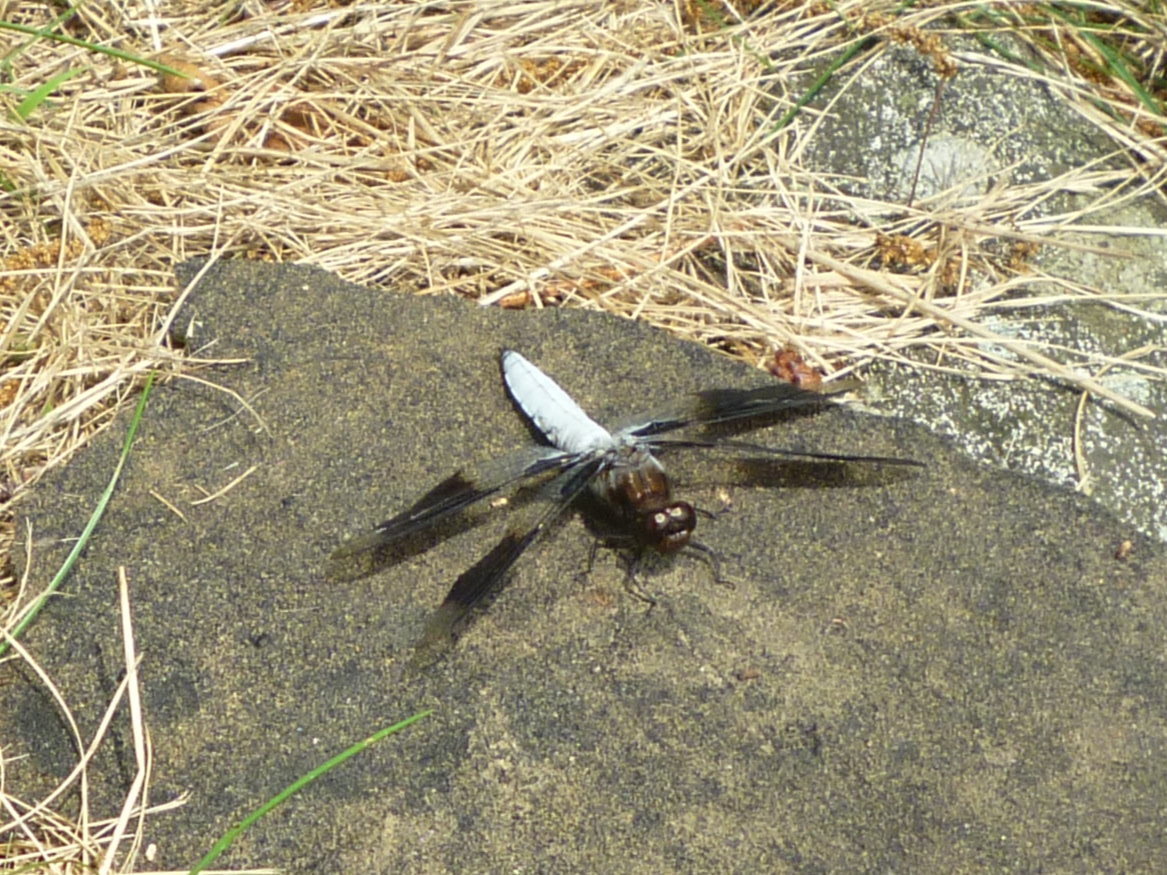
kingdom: Animalia
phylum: Arthropoda
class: Insecta
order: Odonata
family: Libellulidae
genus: Plathemis
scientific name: Plathemis lydia
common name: Common whitetail
